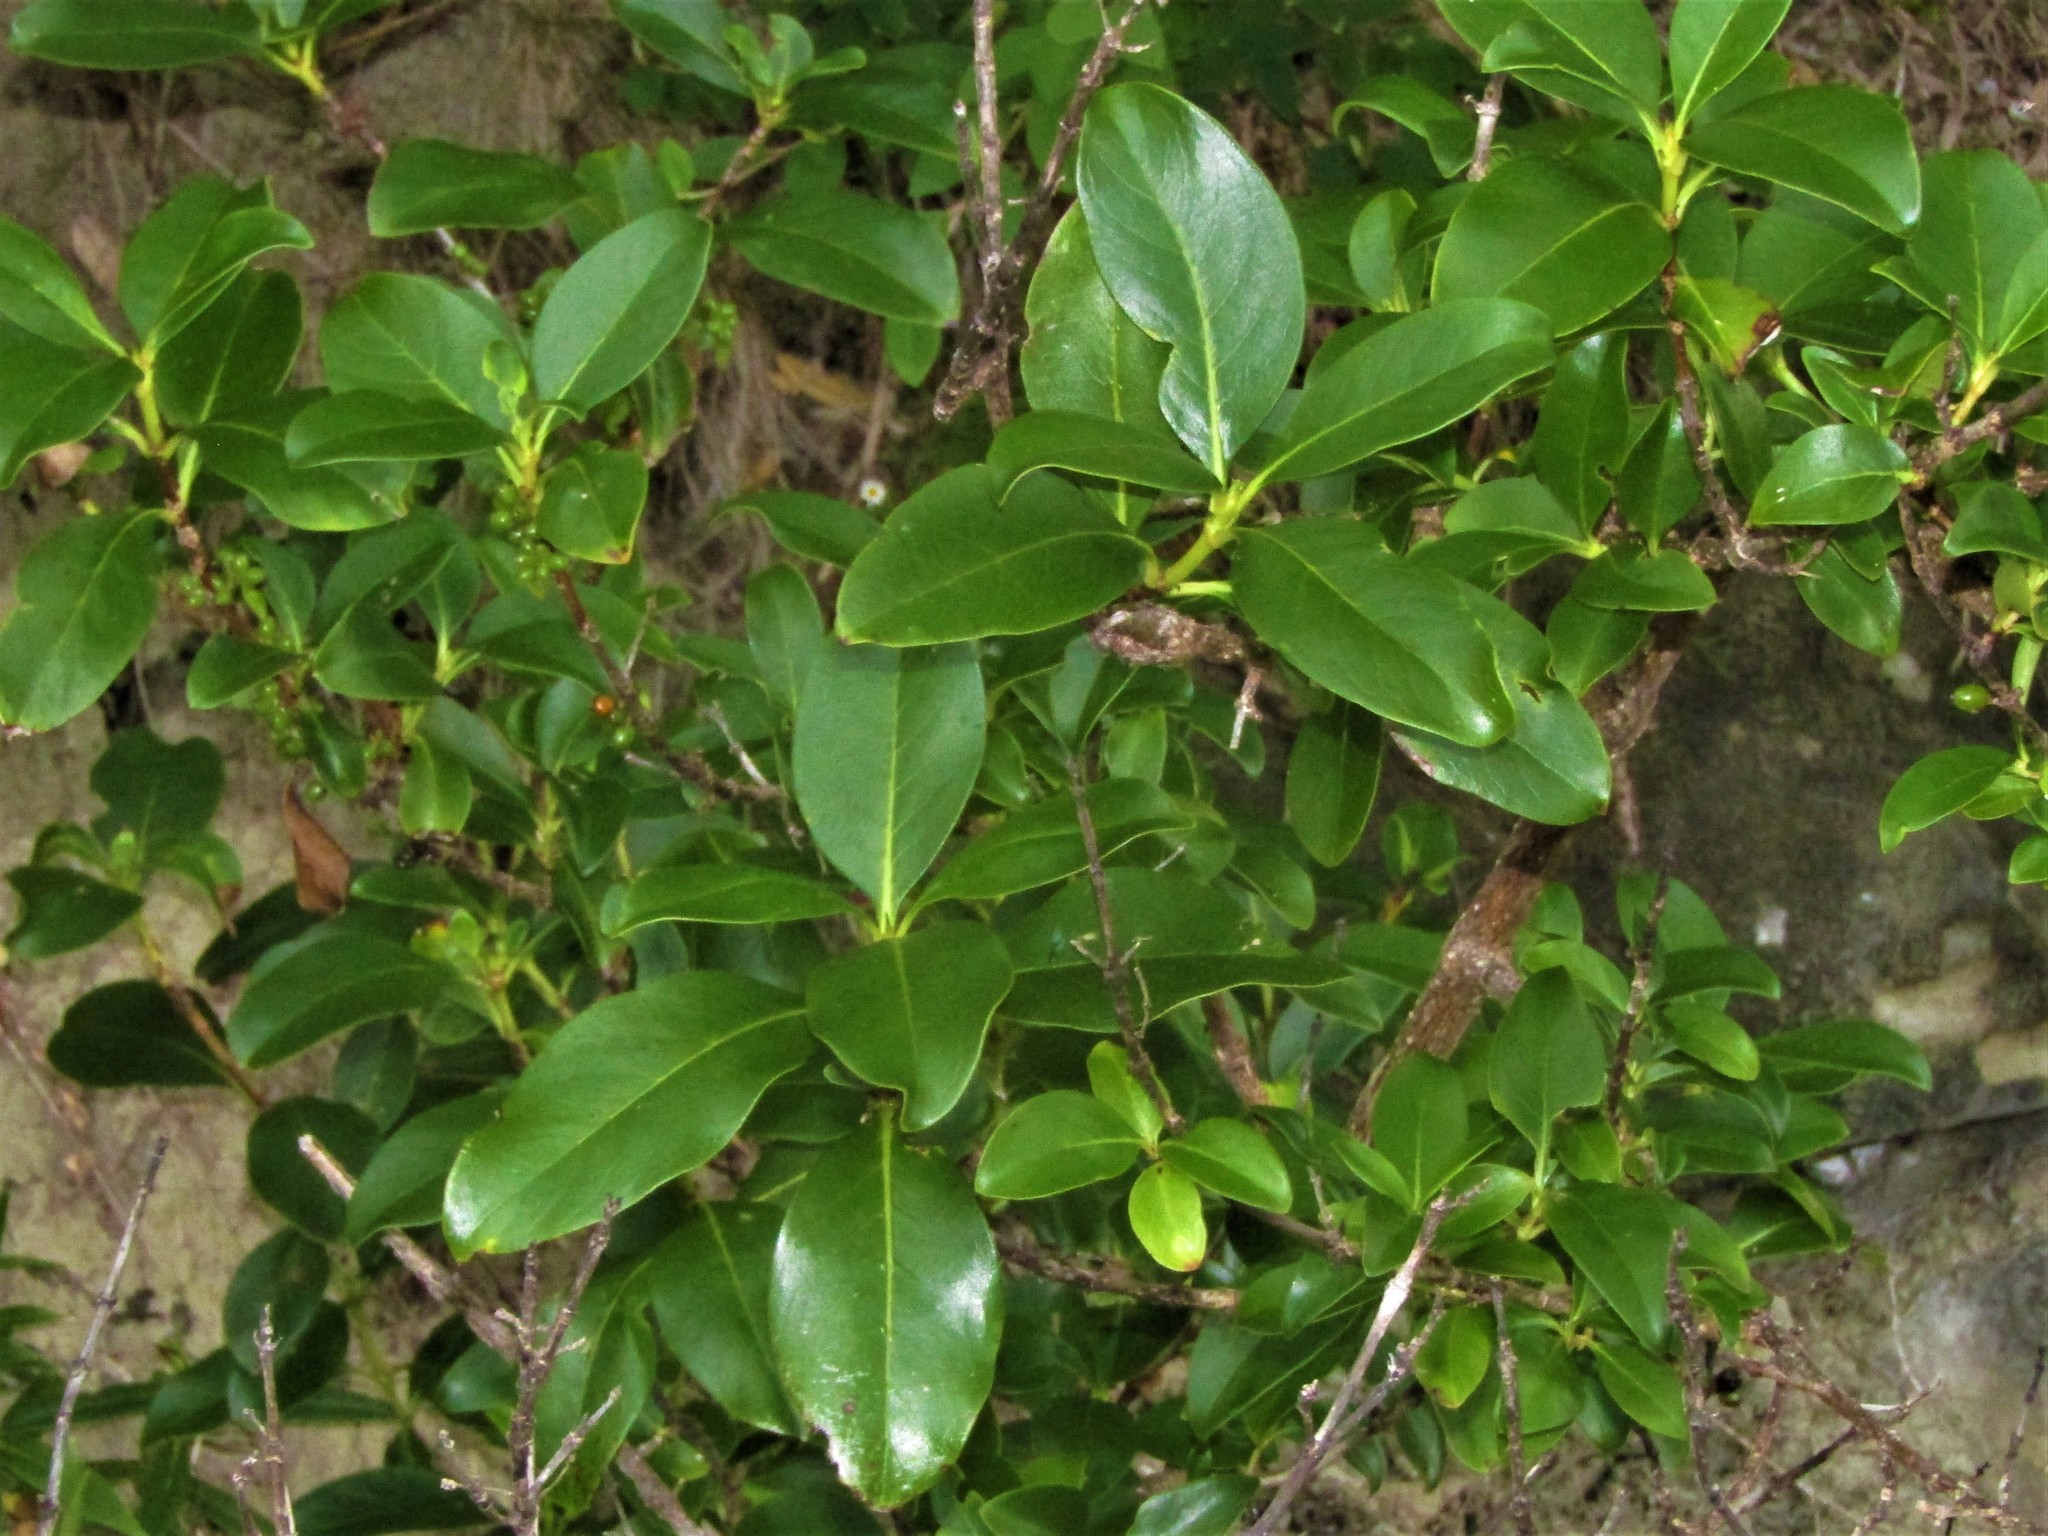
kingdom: Plantae
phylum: Tracheophyta
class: Magnoliopsida
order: Gentianales
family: Rubiaceae
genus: Coprosma
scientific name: Coprosma macrocarpa
